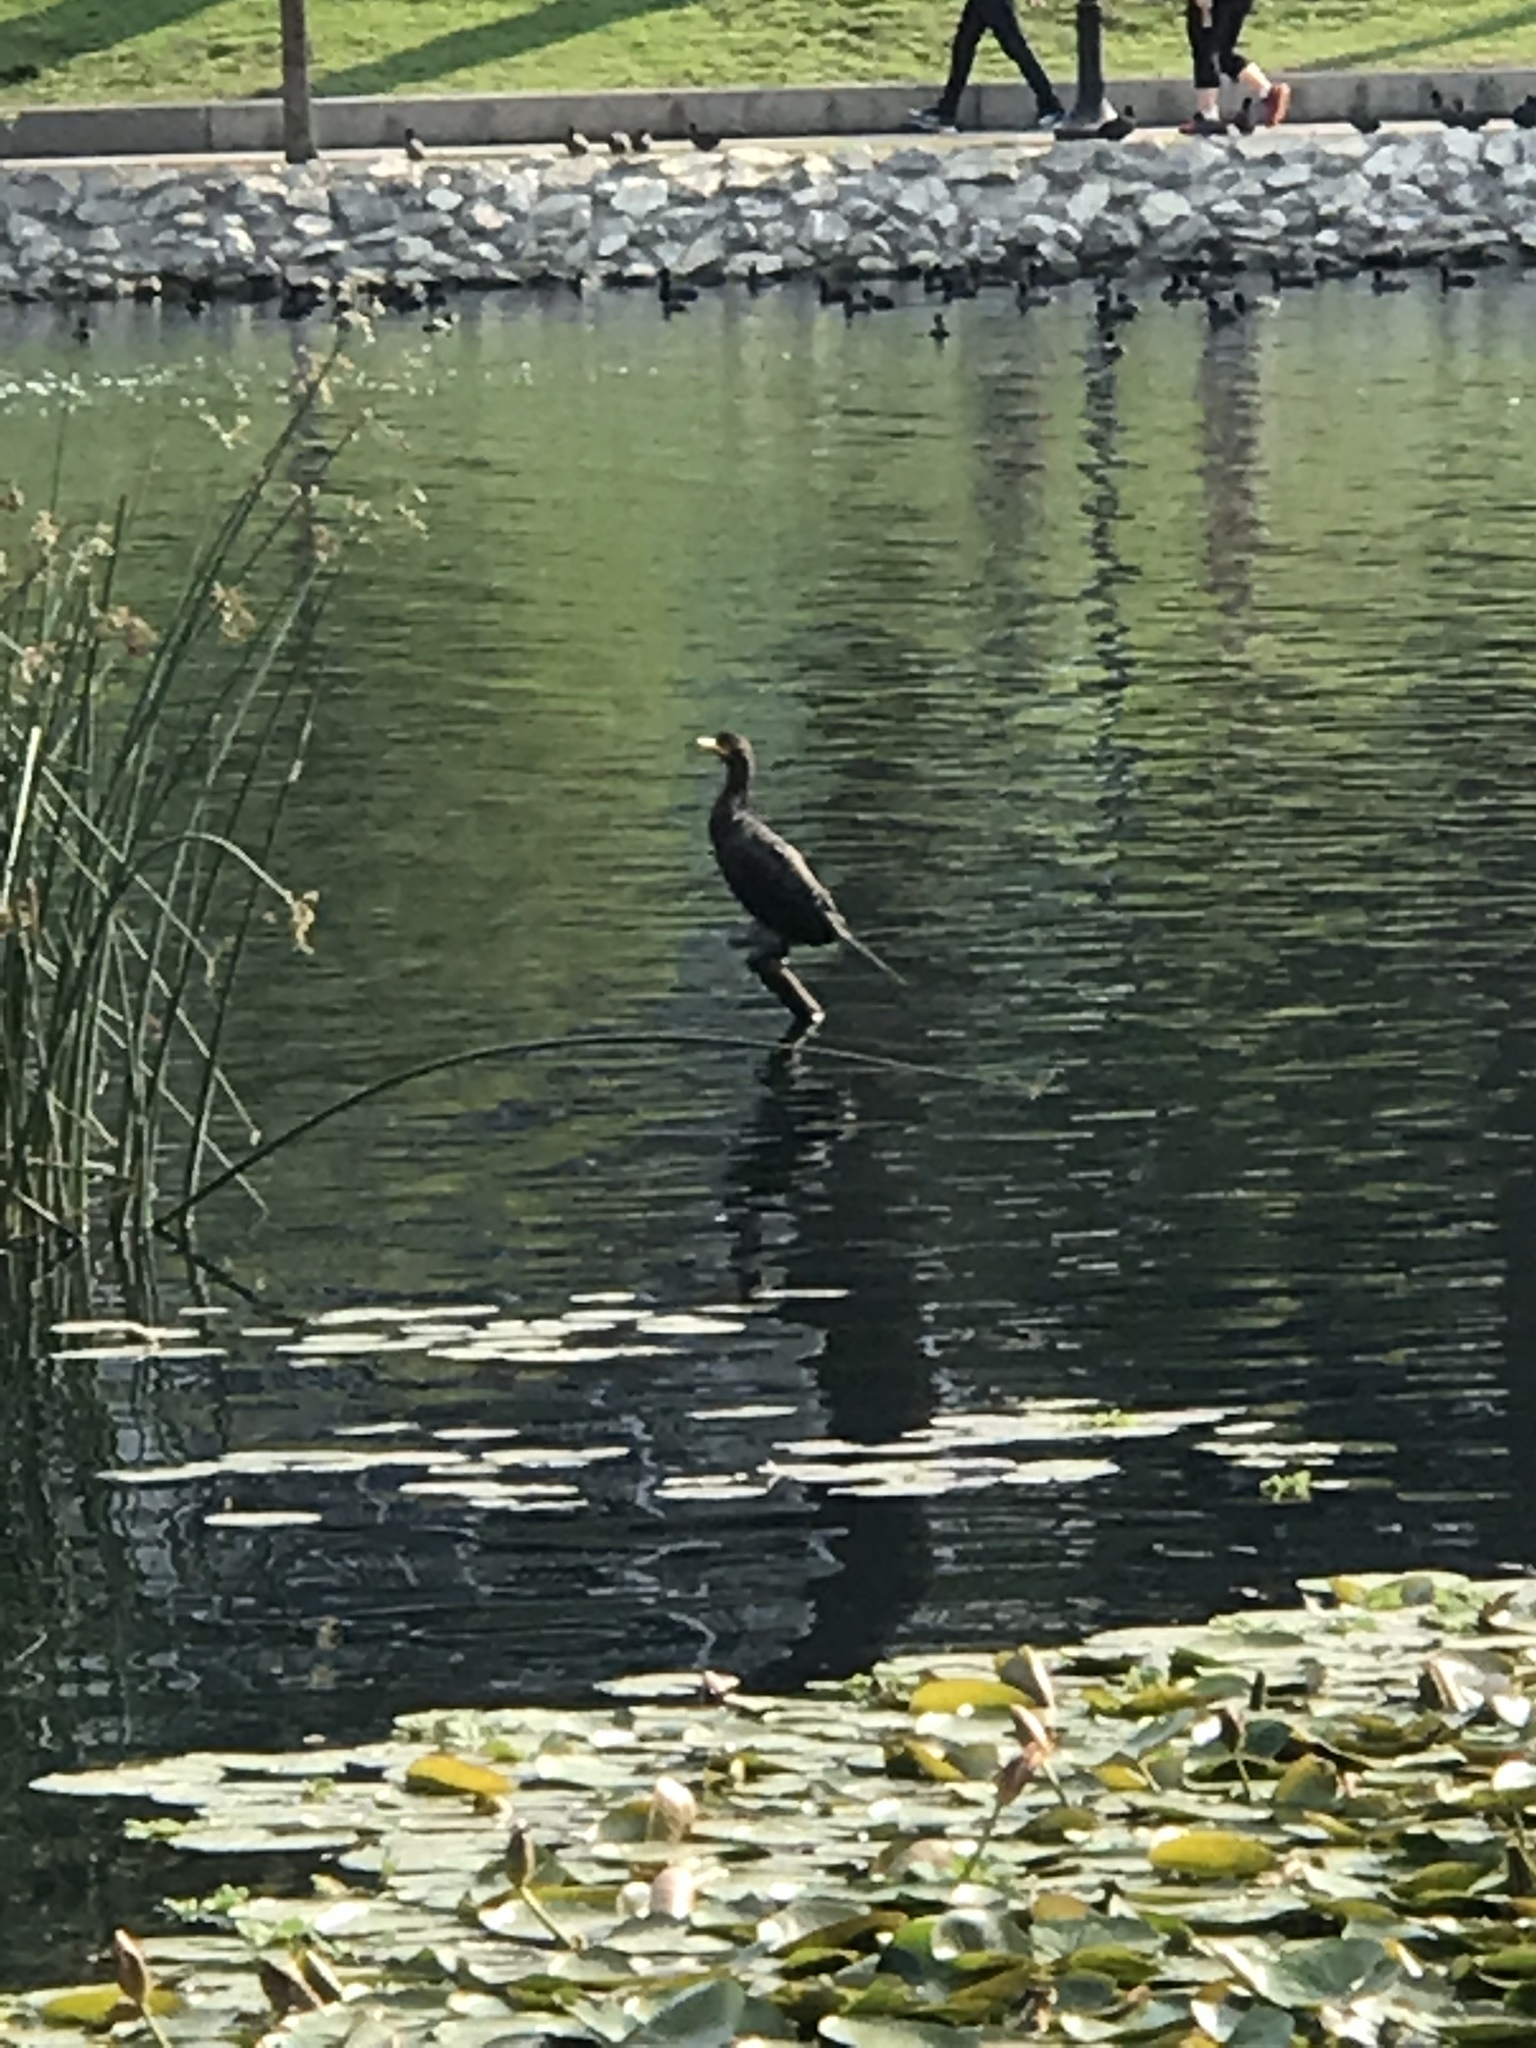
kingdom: Animalia
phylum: Chordata
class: Aves
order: Suliformes
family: Phalacrocoracidae
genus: Phalacrocorax
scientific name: Phalacrocorax auritus
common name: Double-crested cormorant
